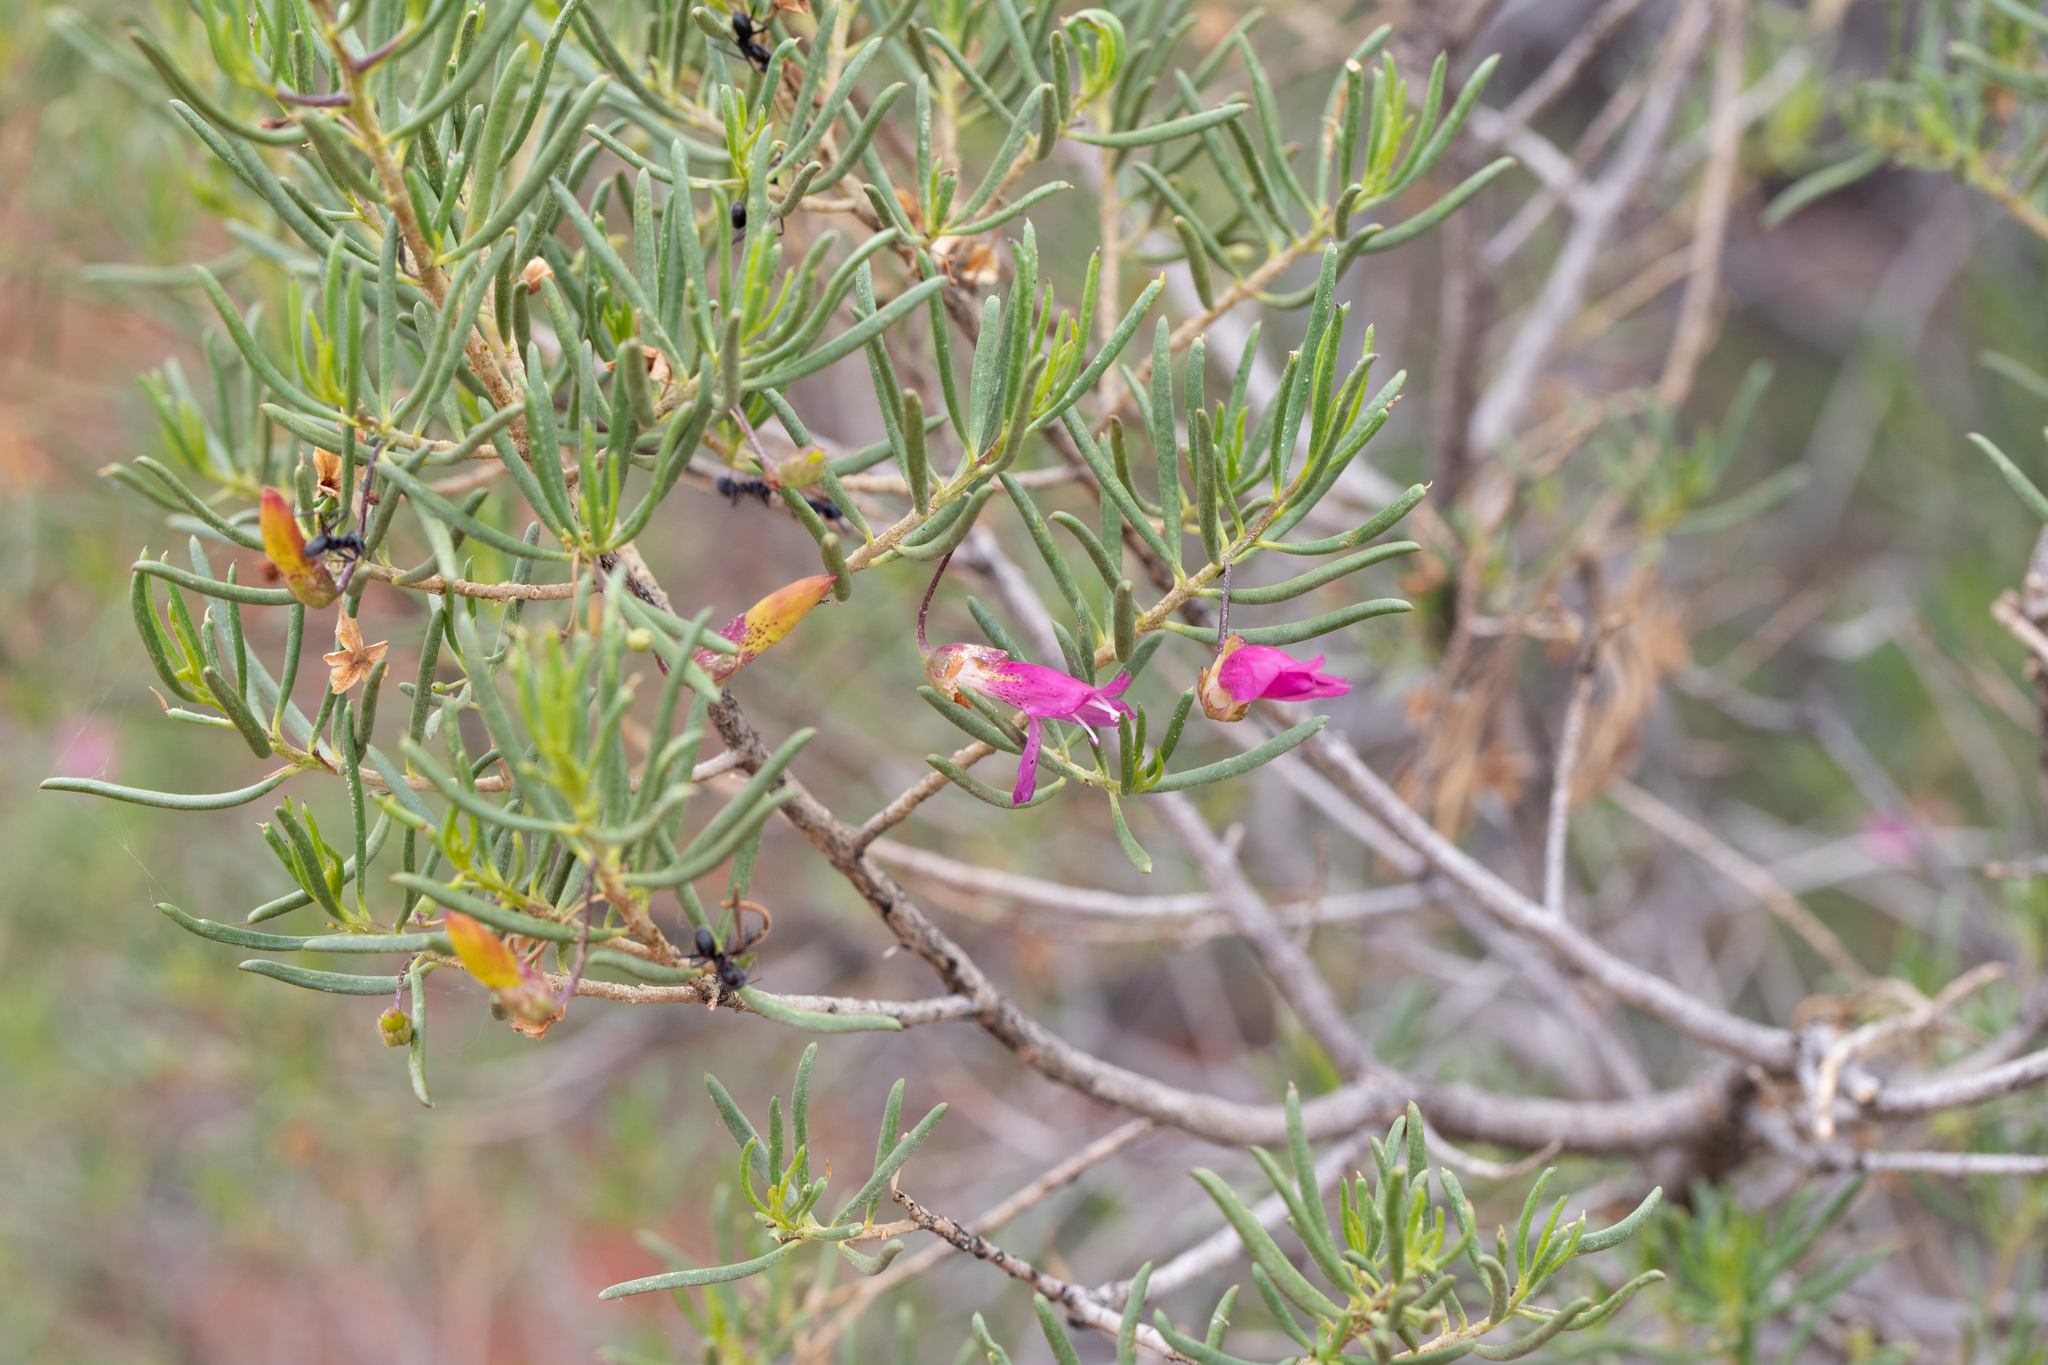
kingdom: Plantae
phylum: Tracheophyta
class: Magnoliopsida
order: Lamiales
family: Scrophulariaceae
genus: Eremophila
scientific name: Eremophila alternifolia
